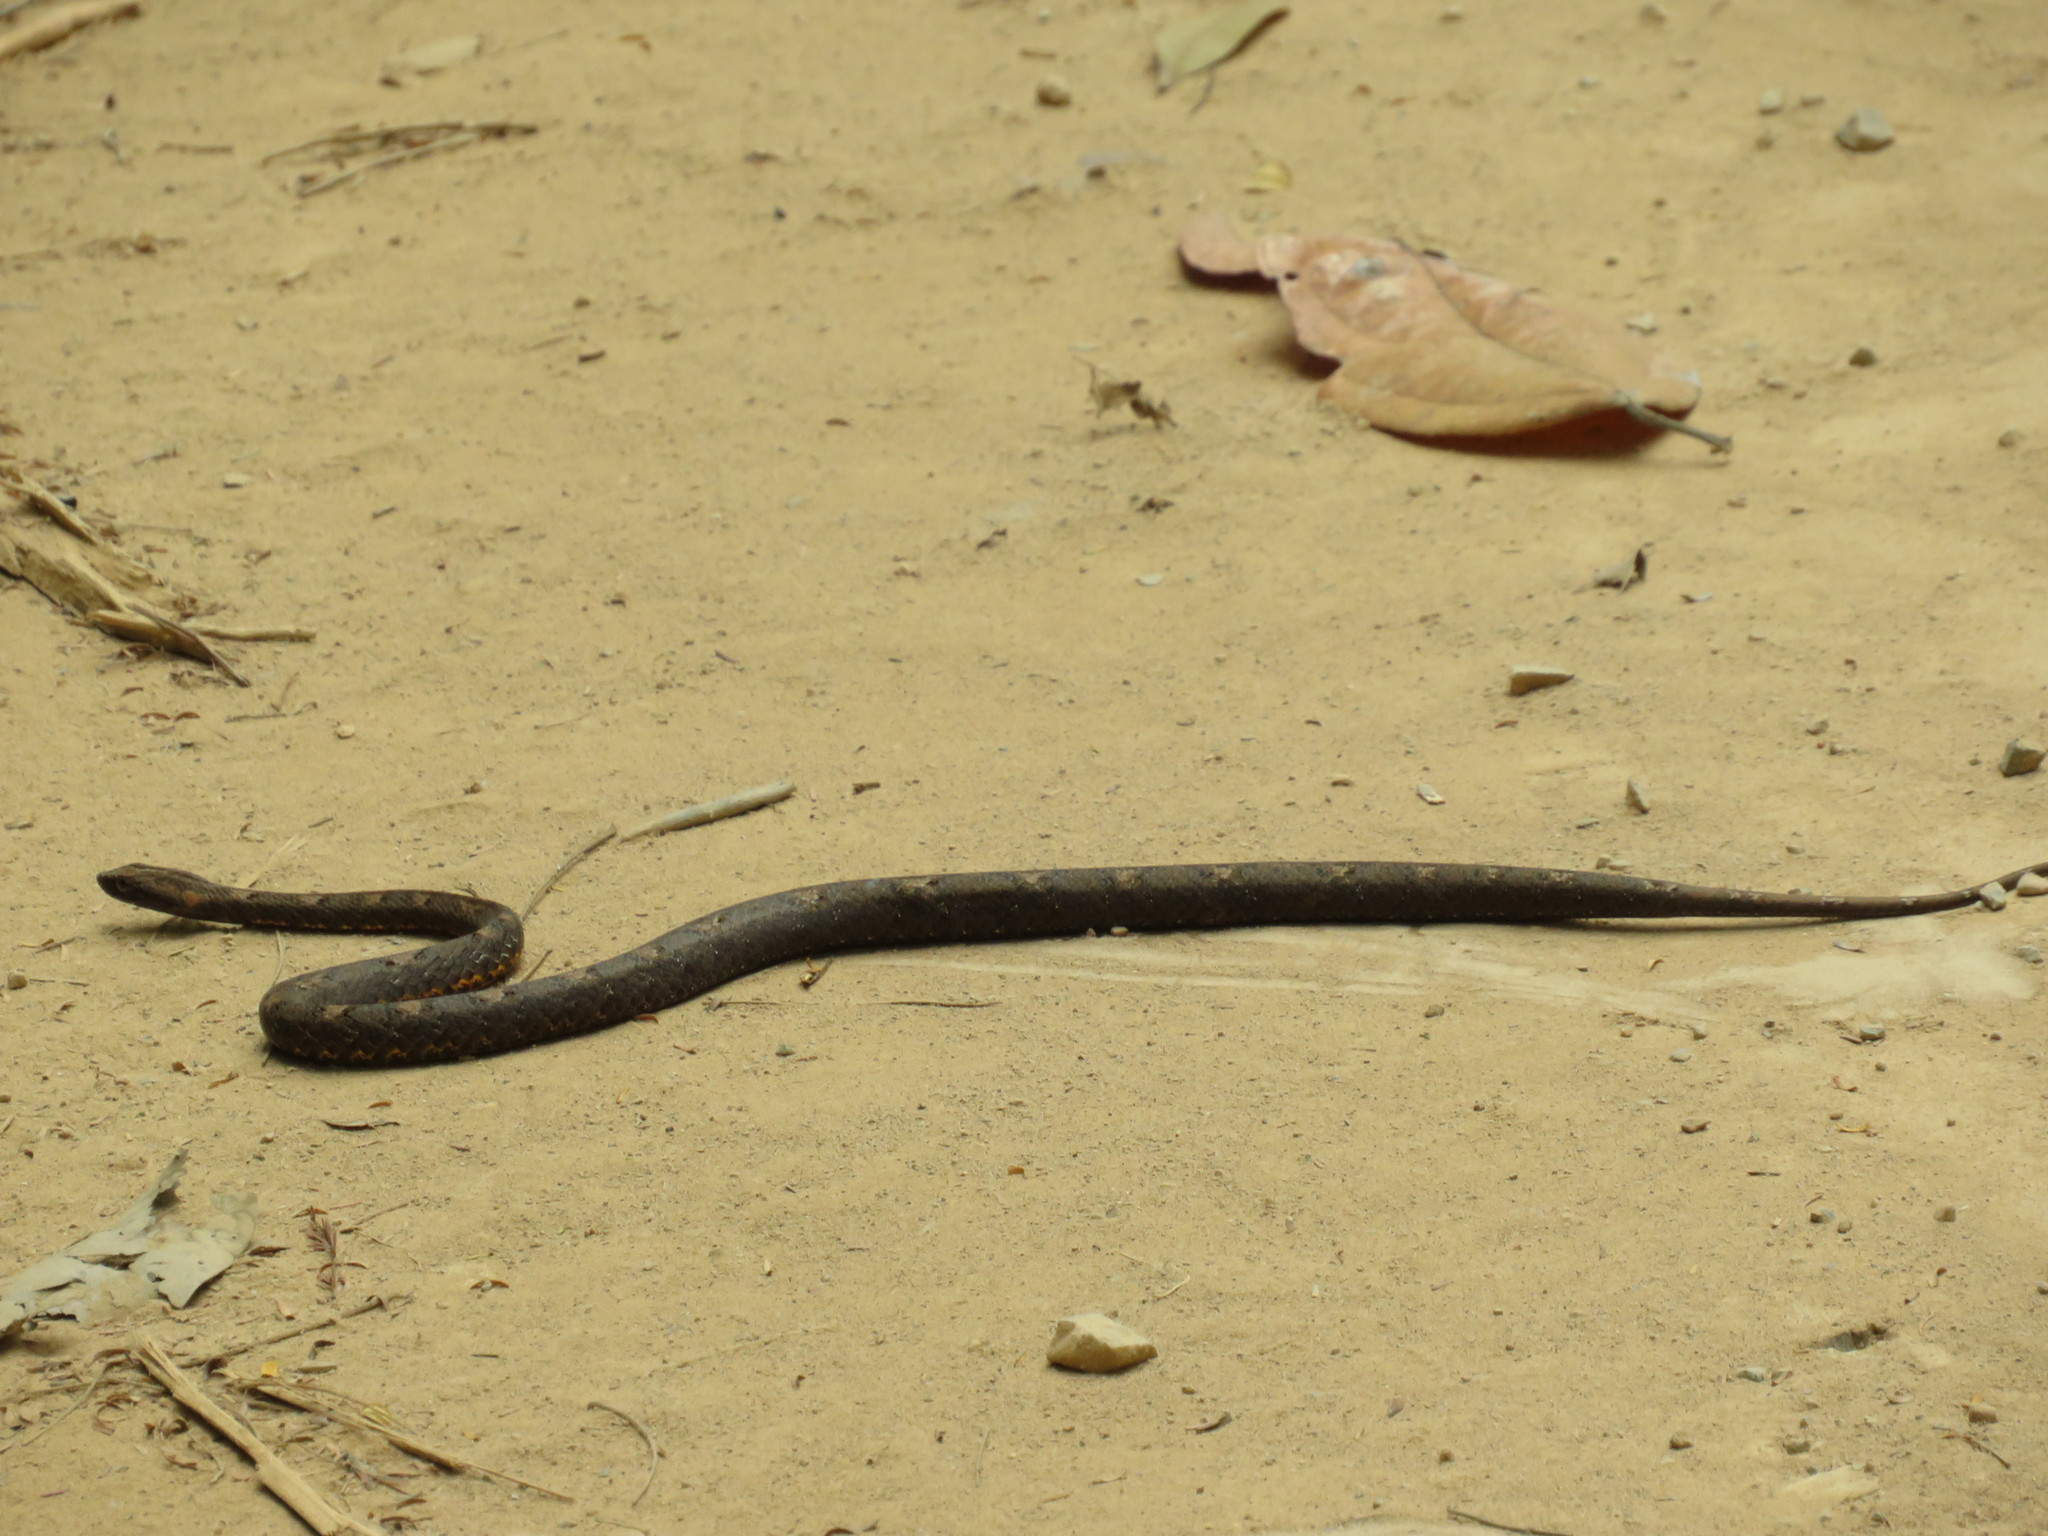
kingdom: Animalia
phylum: Chordata
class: Squamata
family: Pseudaspididae
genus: Psammodynastes
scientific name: Psammodynastes pulverulentus
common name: Common mock viper
